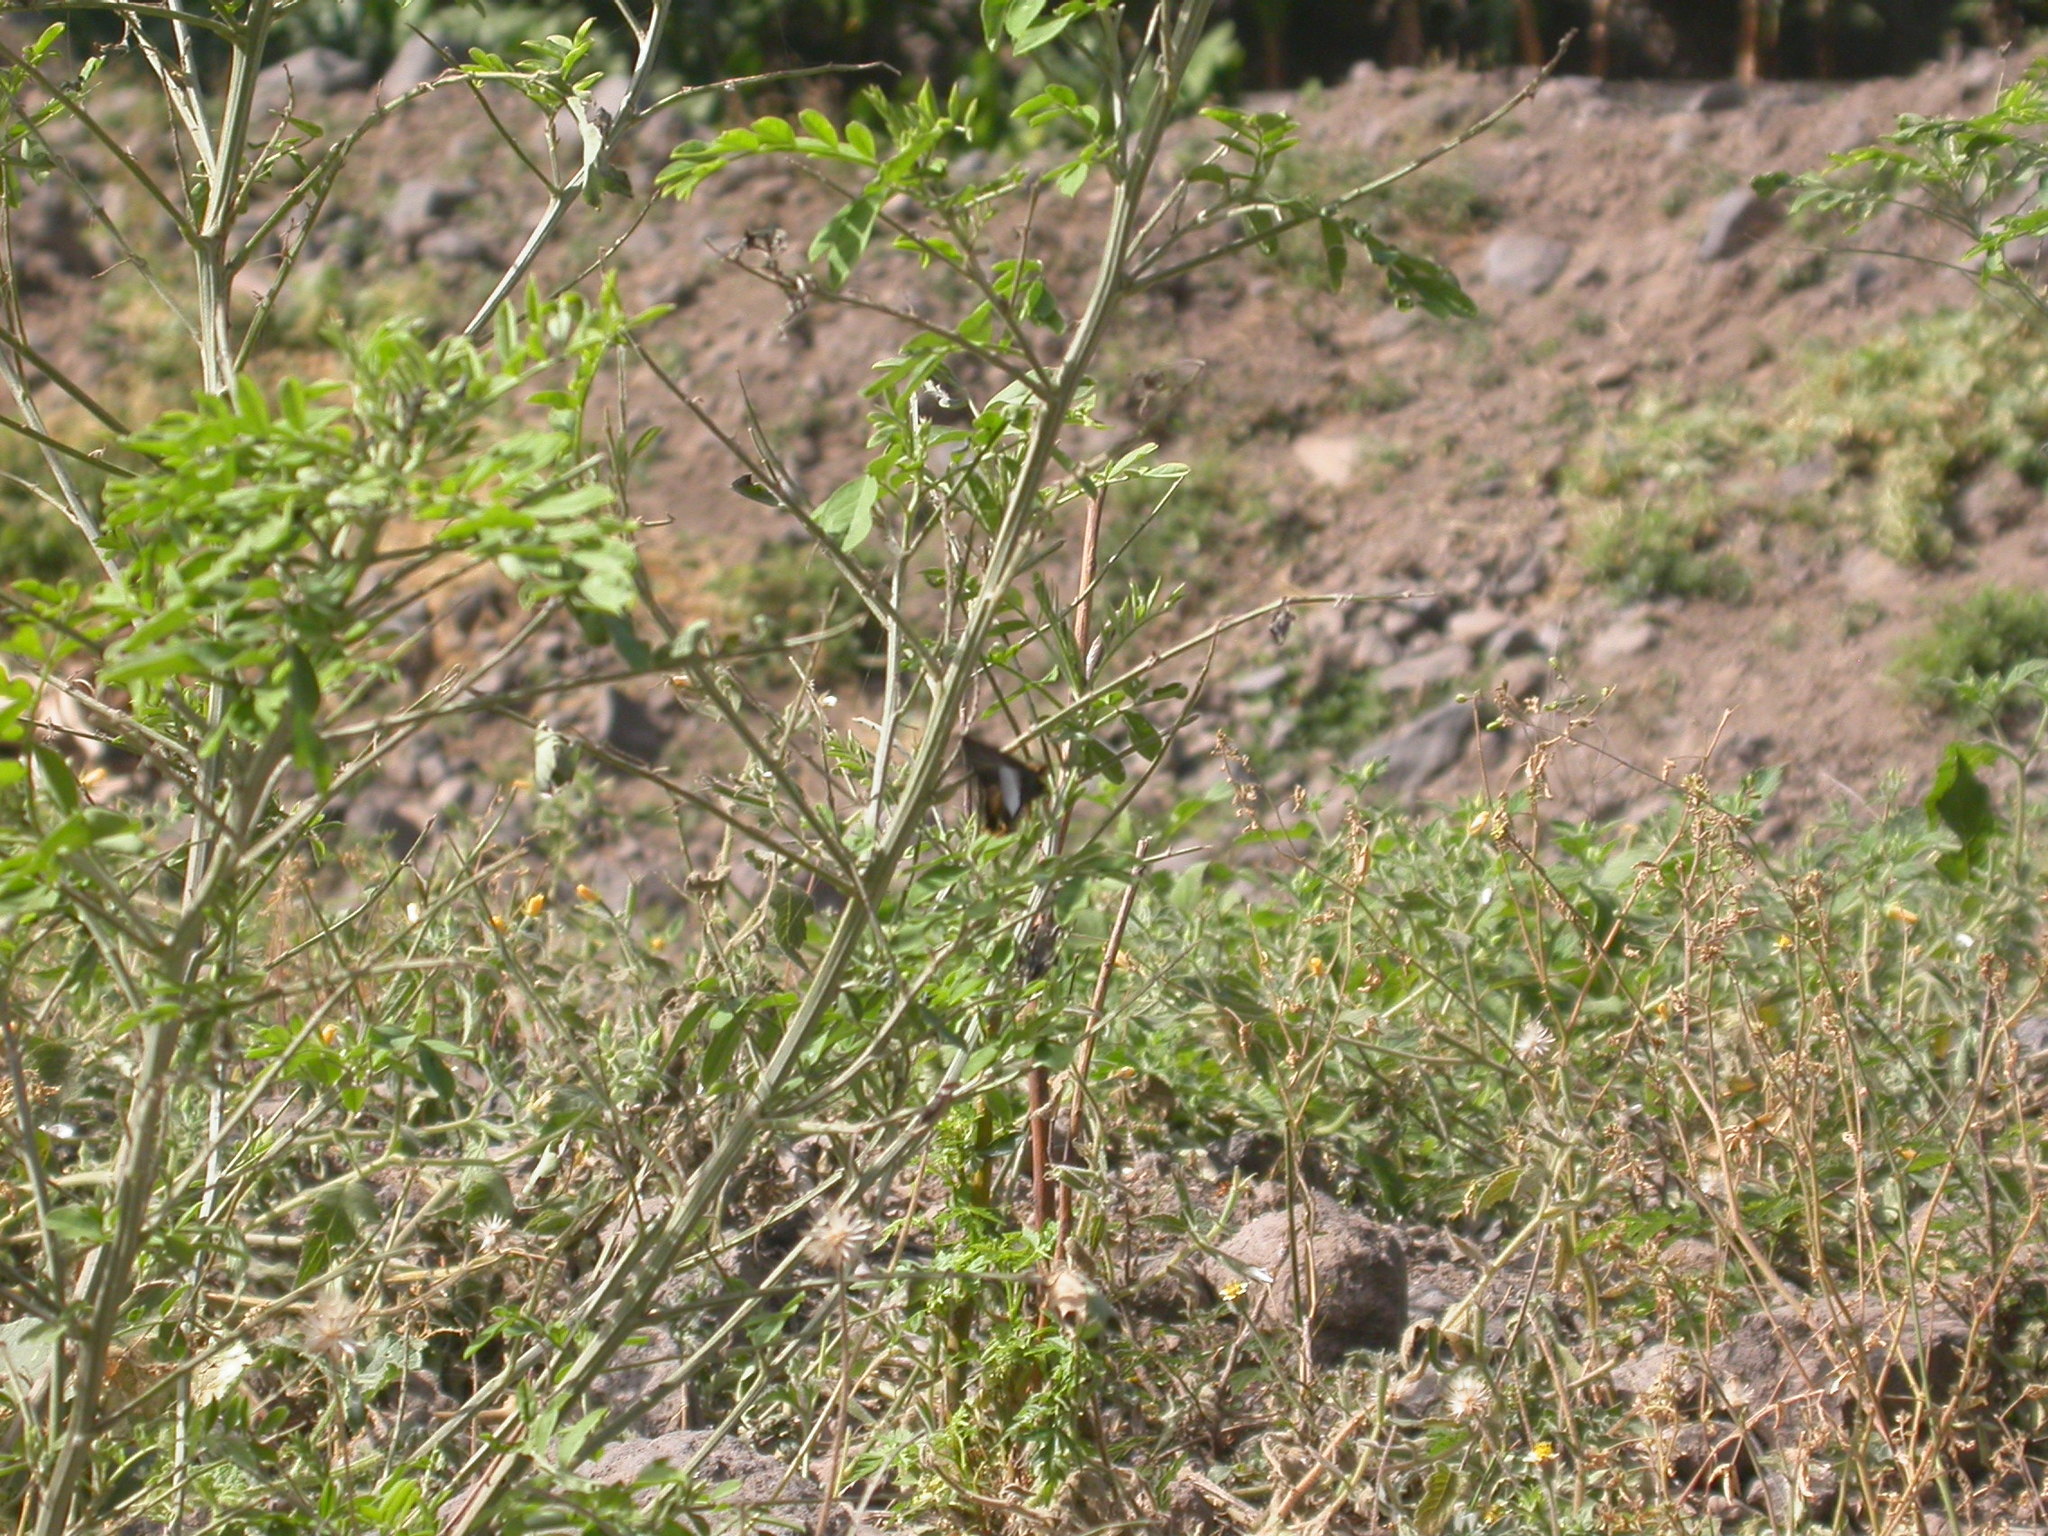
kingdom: Animalia
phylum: Arthropoda
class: Insecta
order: Lepidoptera
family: Hesperiidae
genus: Coeliades
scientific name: Coeliades forestan
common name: Striped policeman
